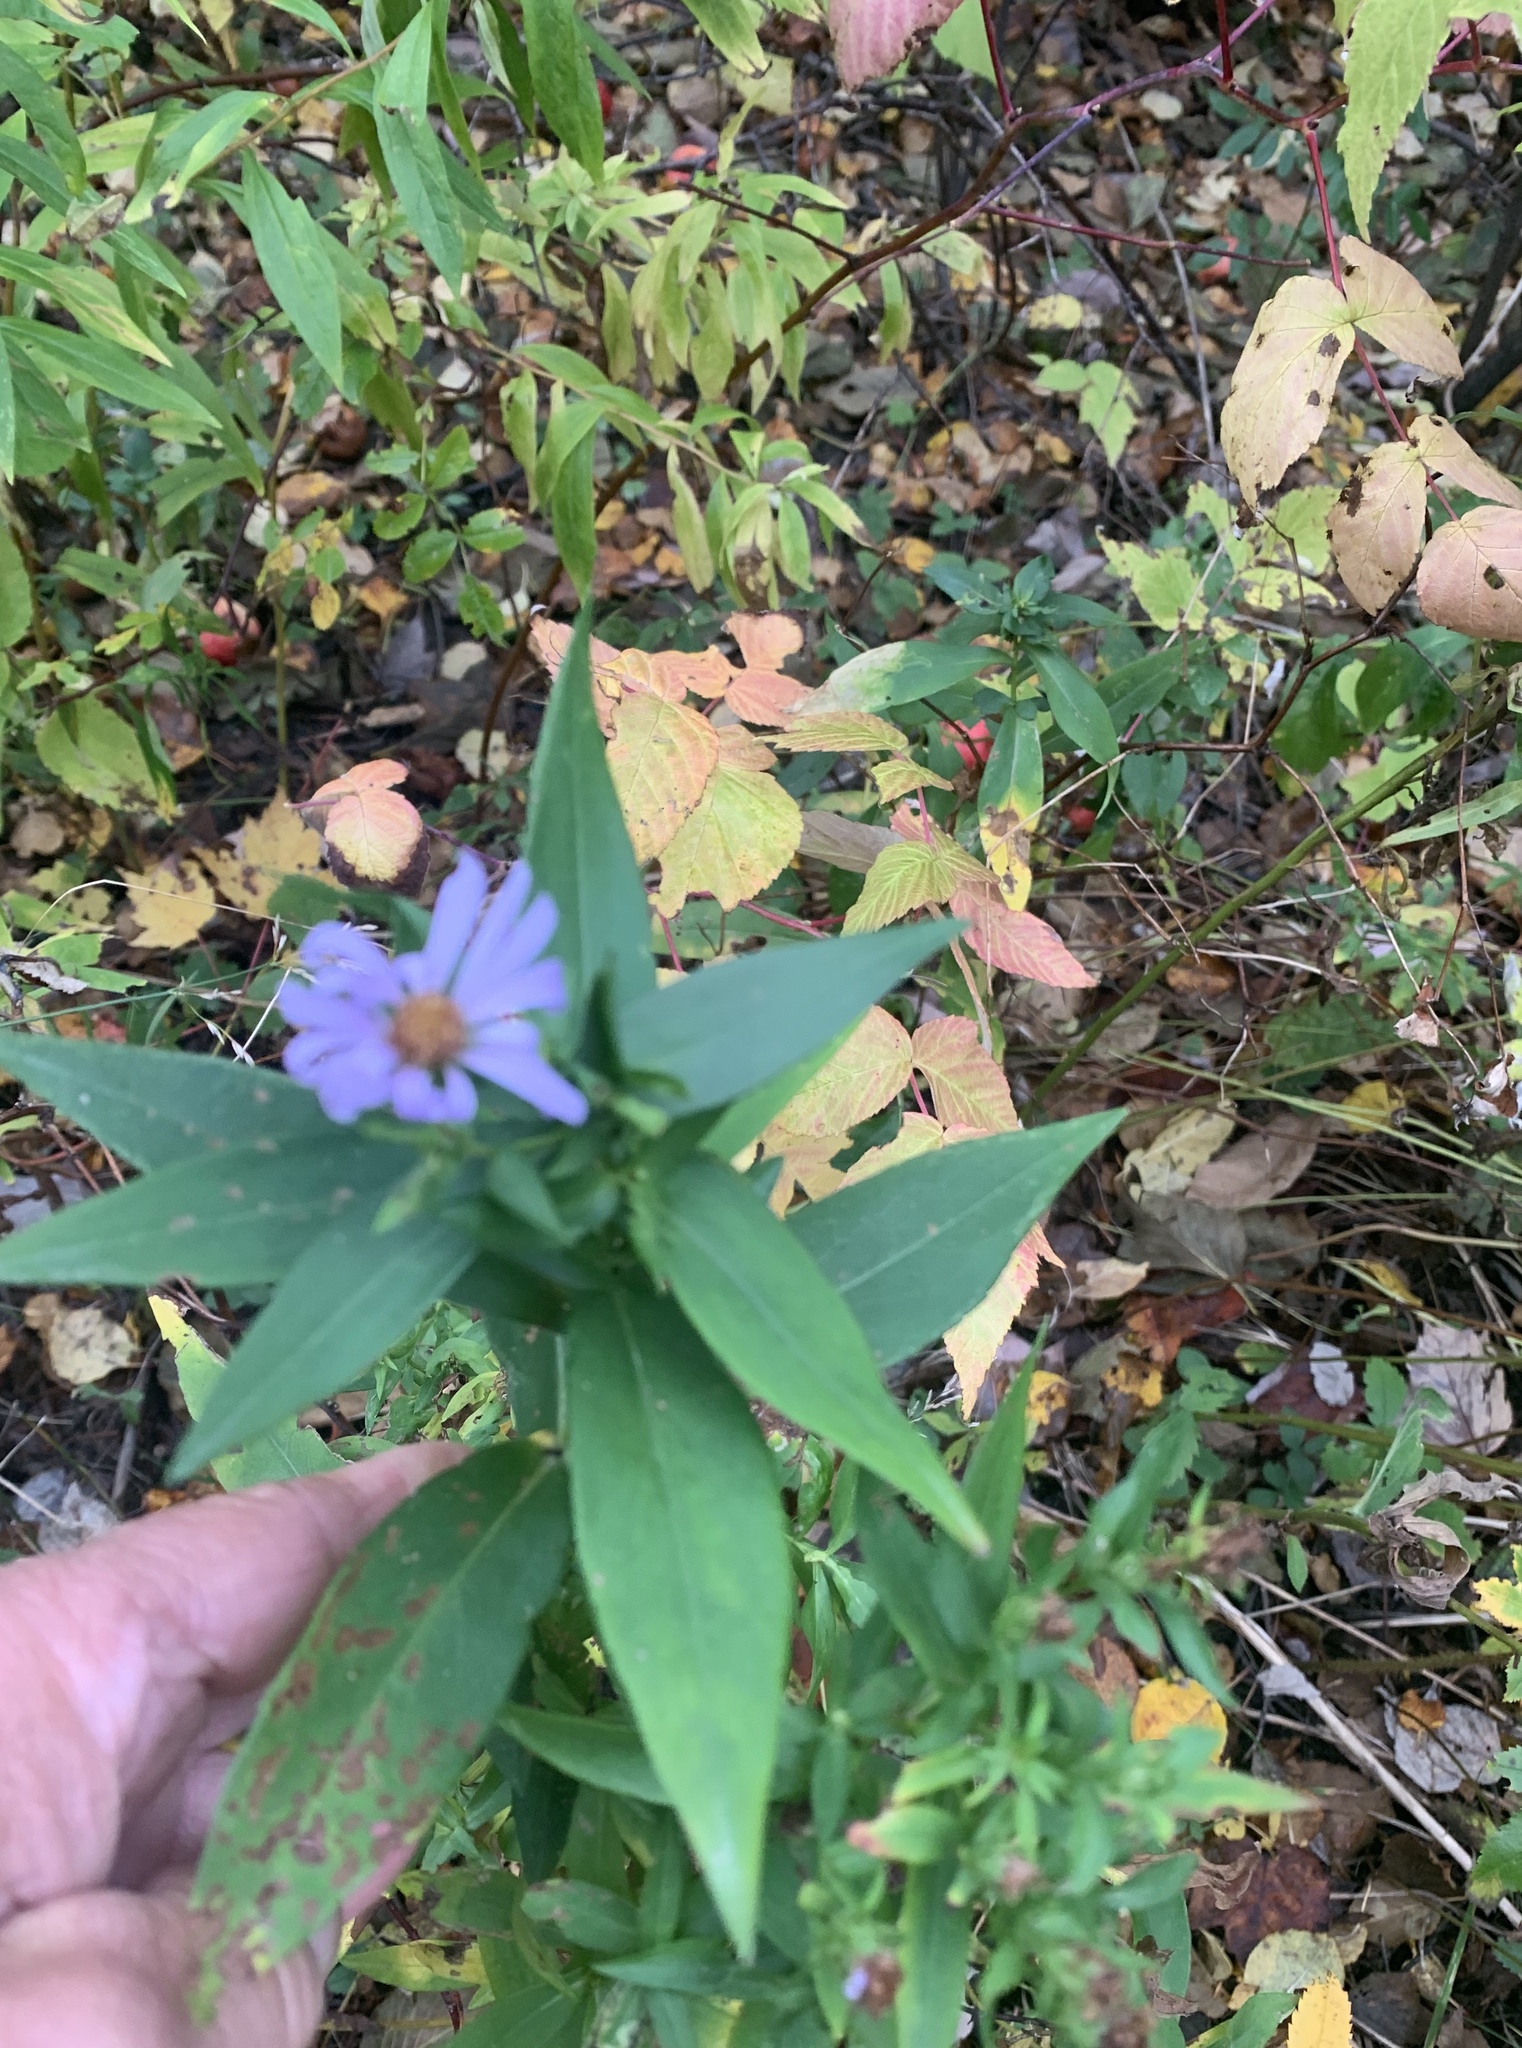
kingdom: Plantae
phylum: Tracheophyta
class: Magnoliopsida
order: Asterales
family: Asteraceae
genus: Symphyotrichum
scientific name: Symphyotrichum novi-belgii
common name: Michaelmas daisy
